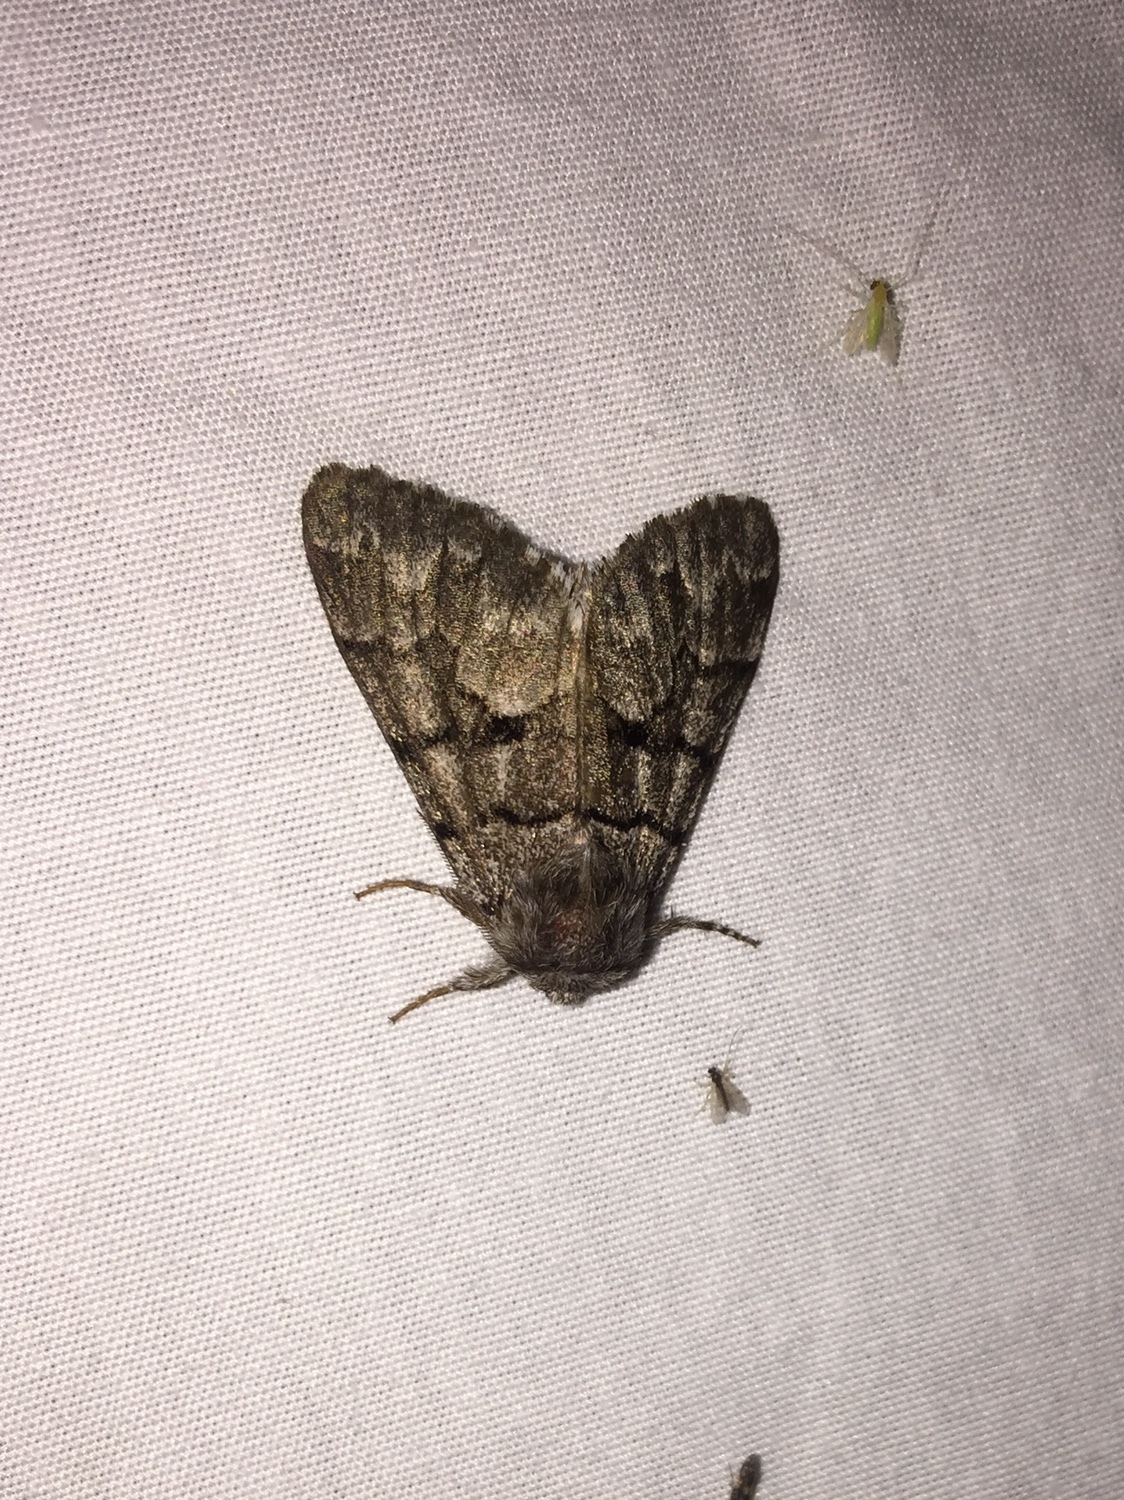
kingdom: Animalia
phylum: Arthropoda
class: Insecta
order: Lepidoptera
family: Noctuidae
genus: Panthea
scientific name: Panthea furcilla
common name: Eastern panthea moth
